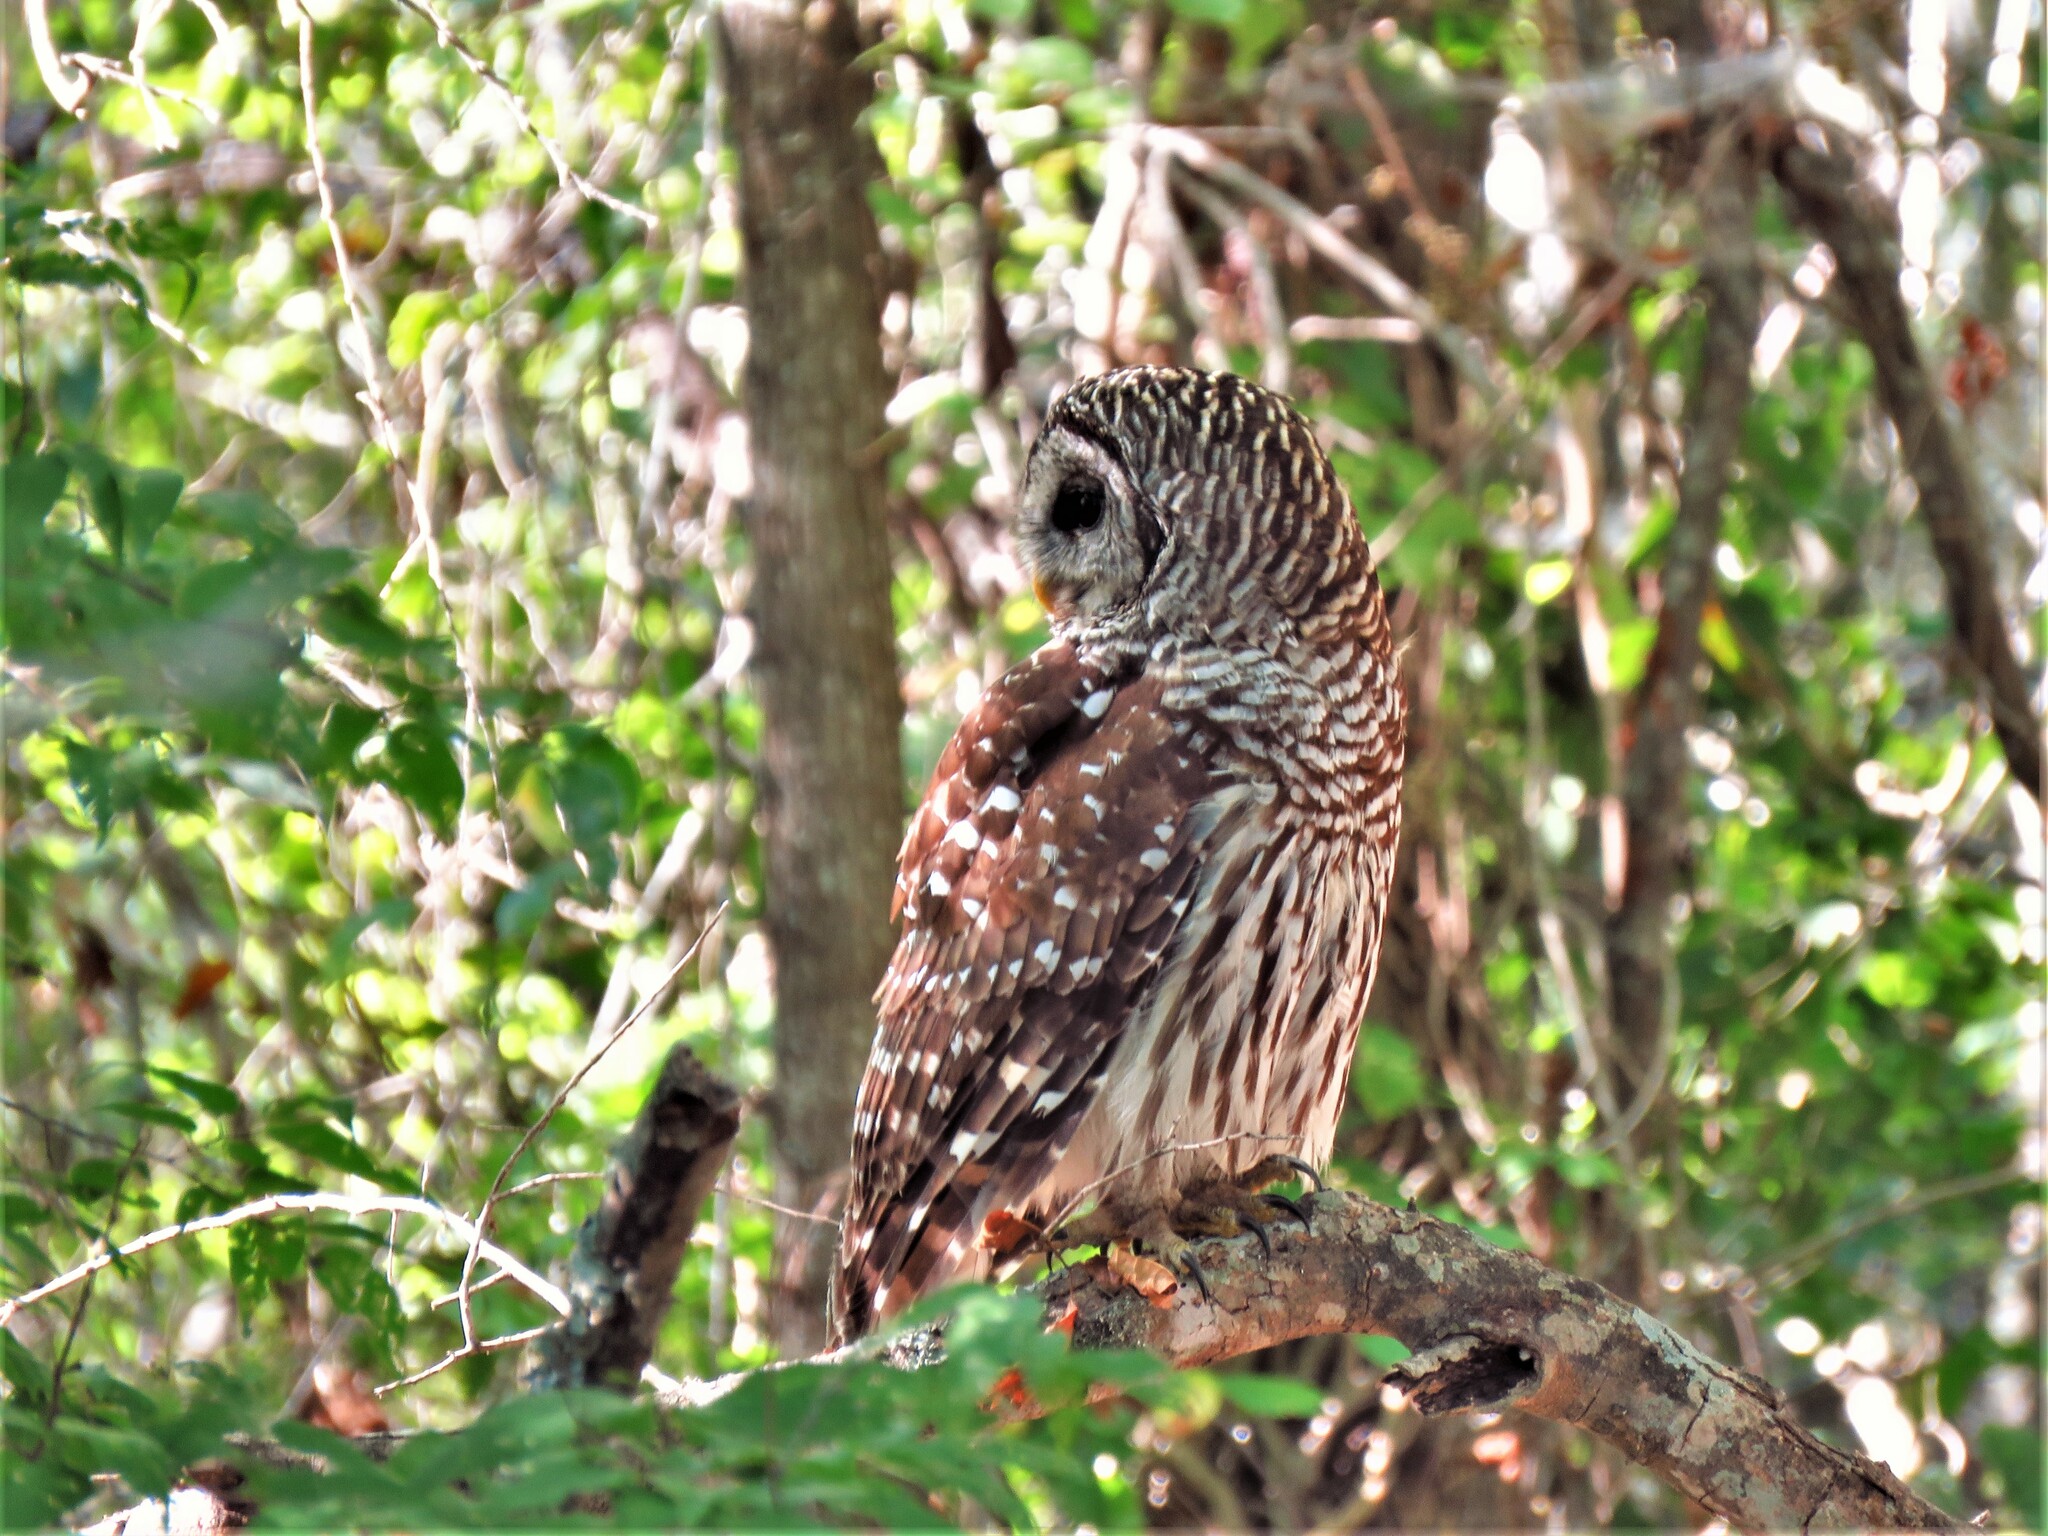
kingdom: Animalia
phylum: Chordata
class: Aves
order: Strigiformes
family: Strigidae
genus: Strix
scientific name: Strix varia
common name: Barred owl
